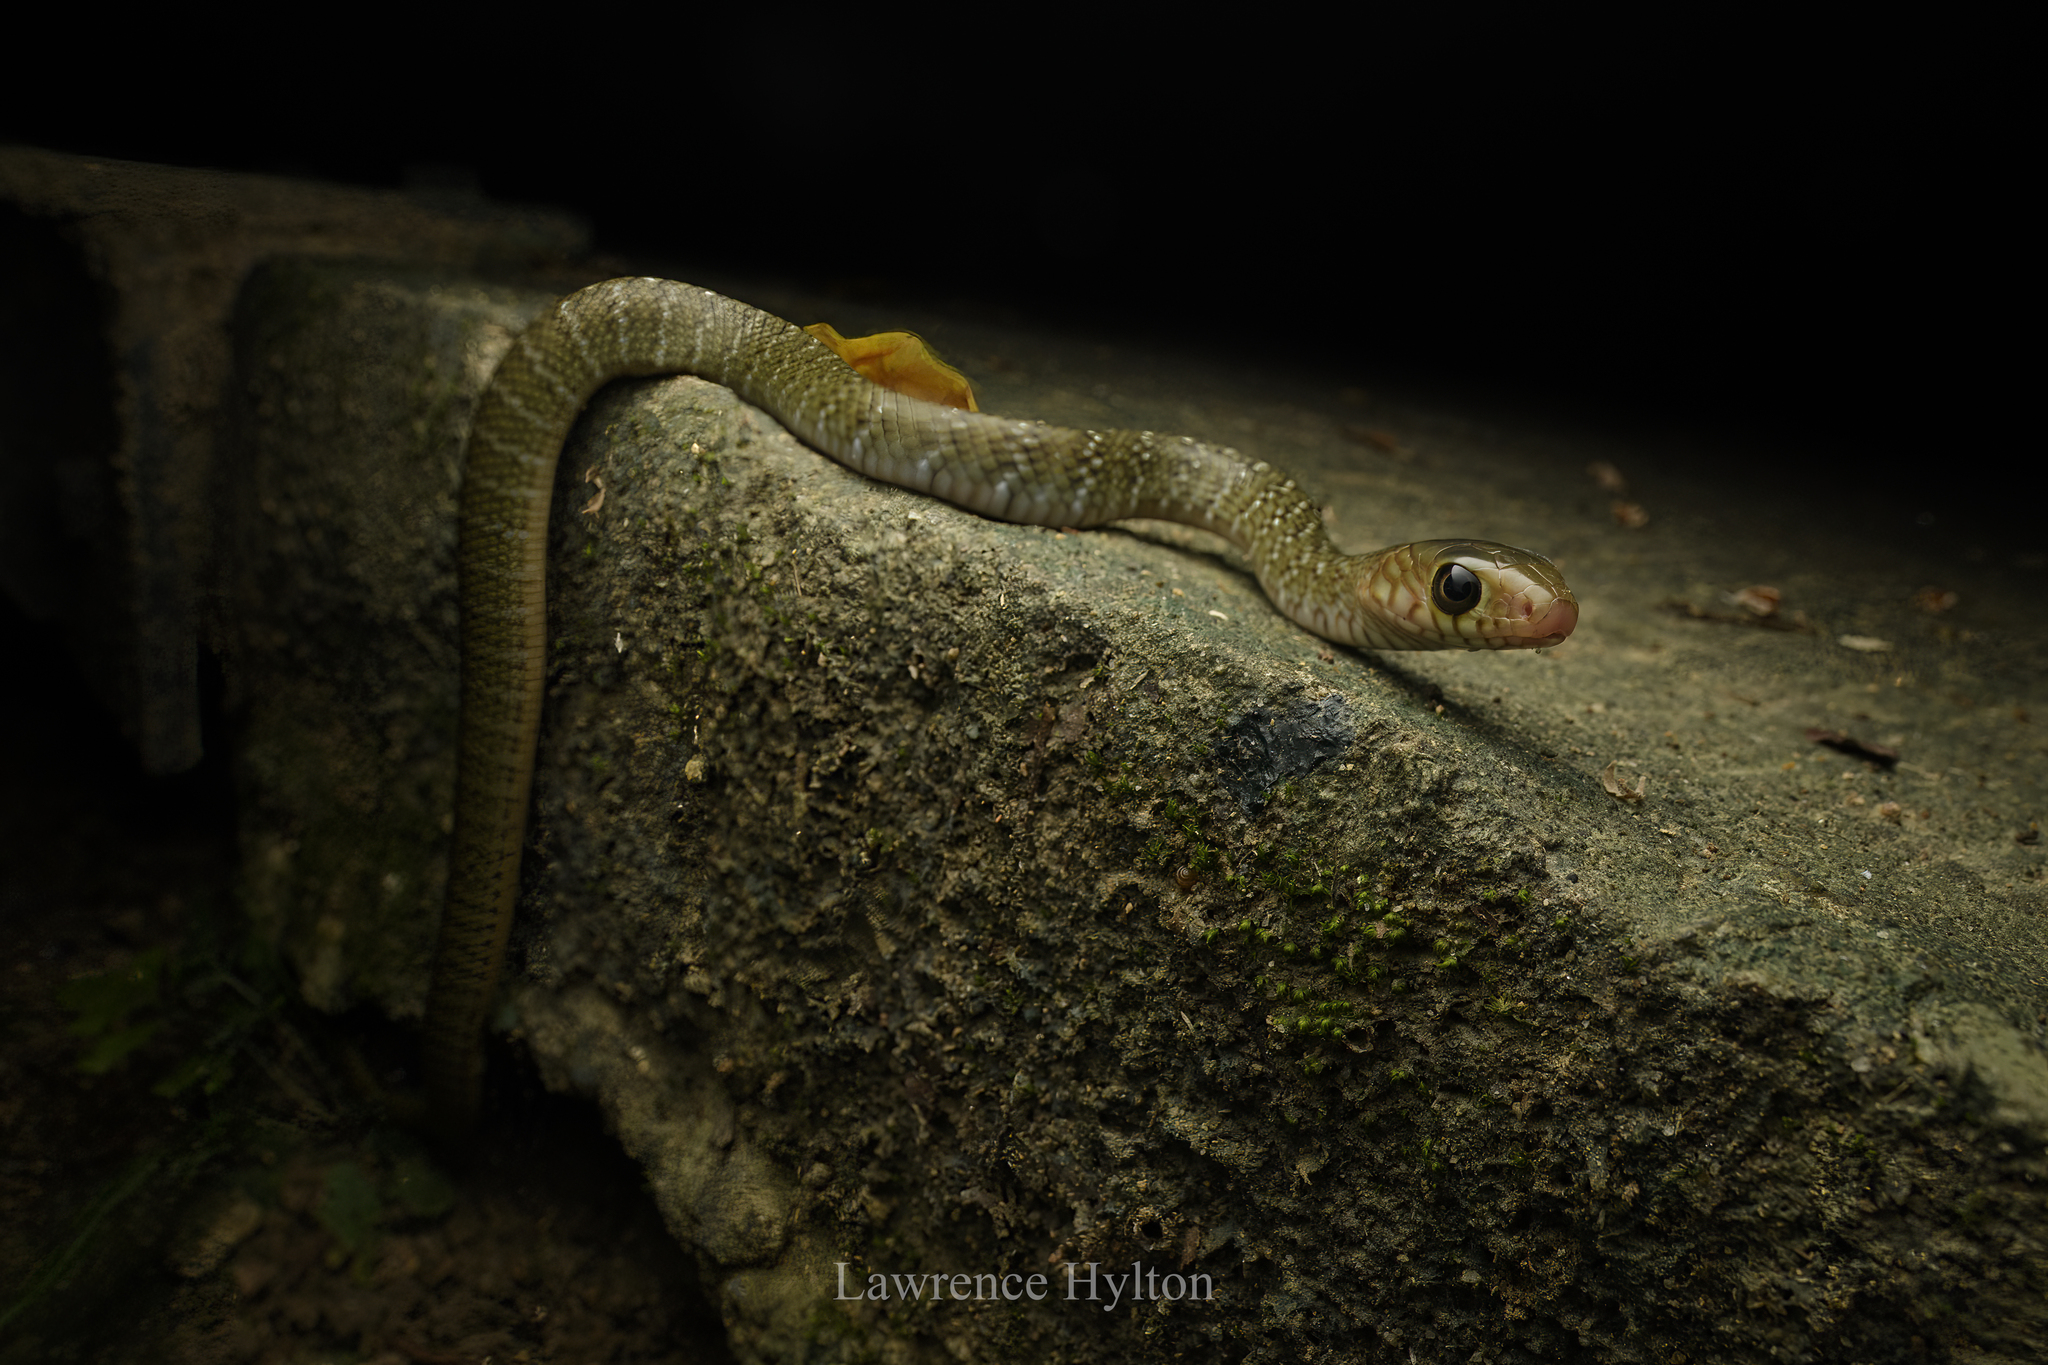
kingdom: Animalia
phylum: Chordata
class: Squamata
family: Colubridae
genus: Ptyas
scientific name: Ptyas mucosa
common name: Oriental ratsnake
